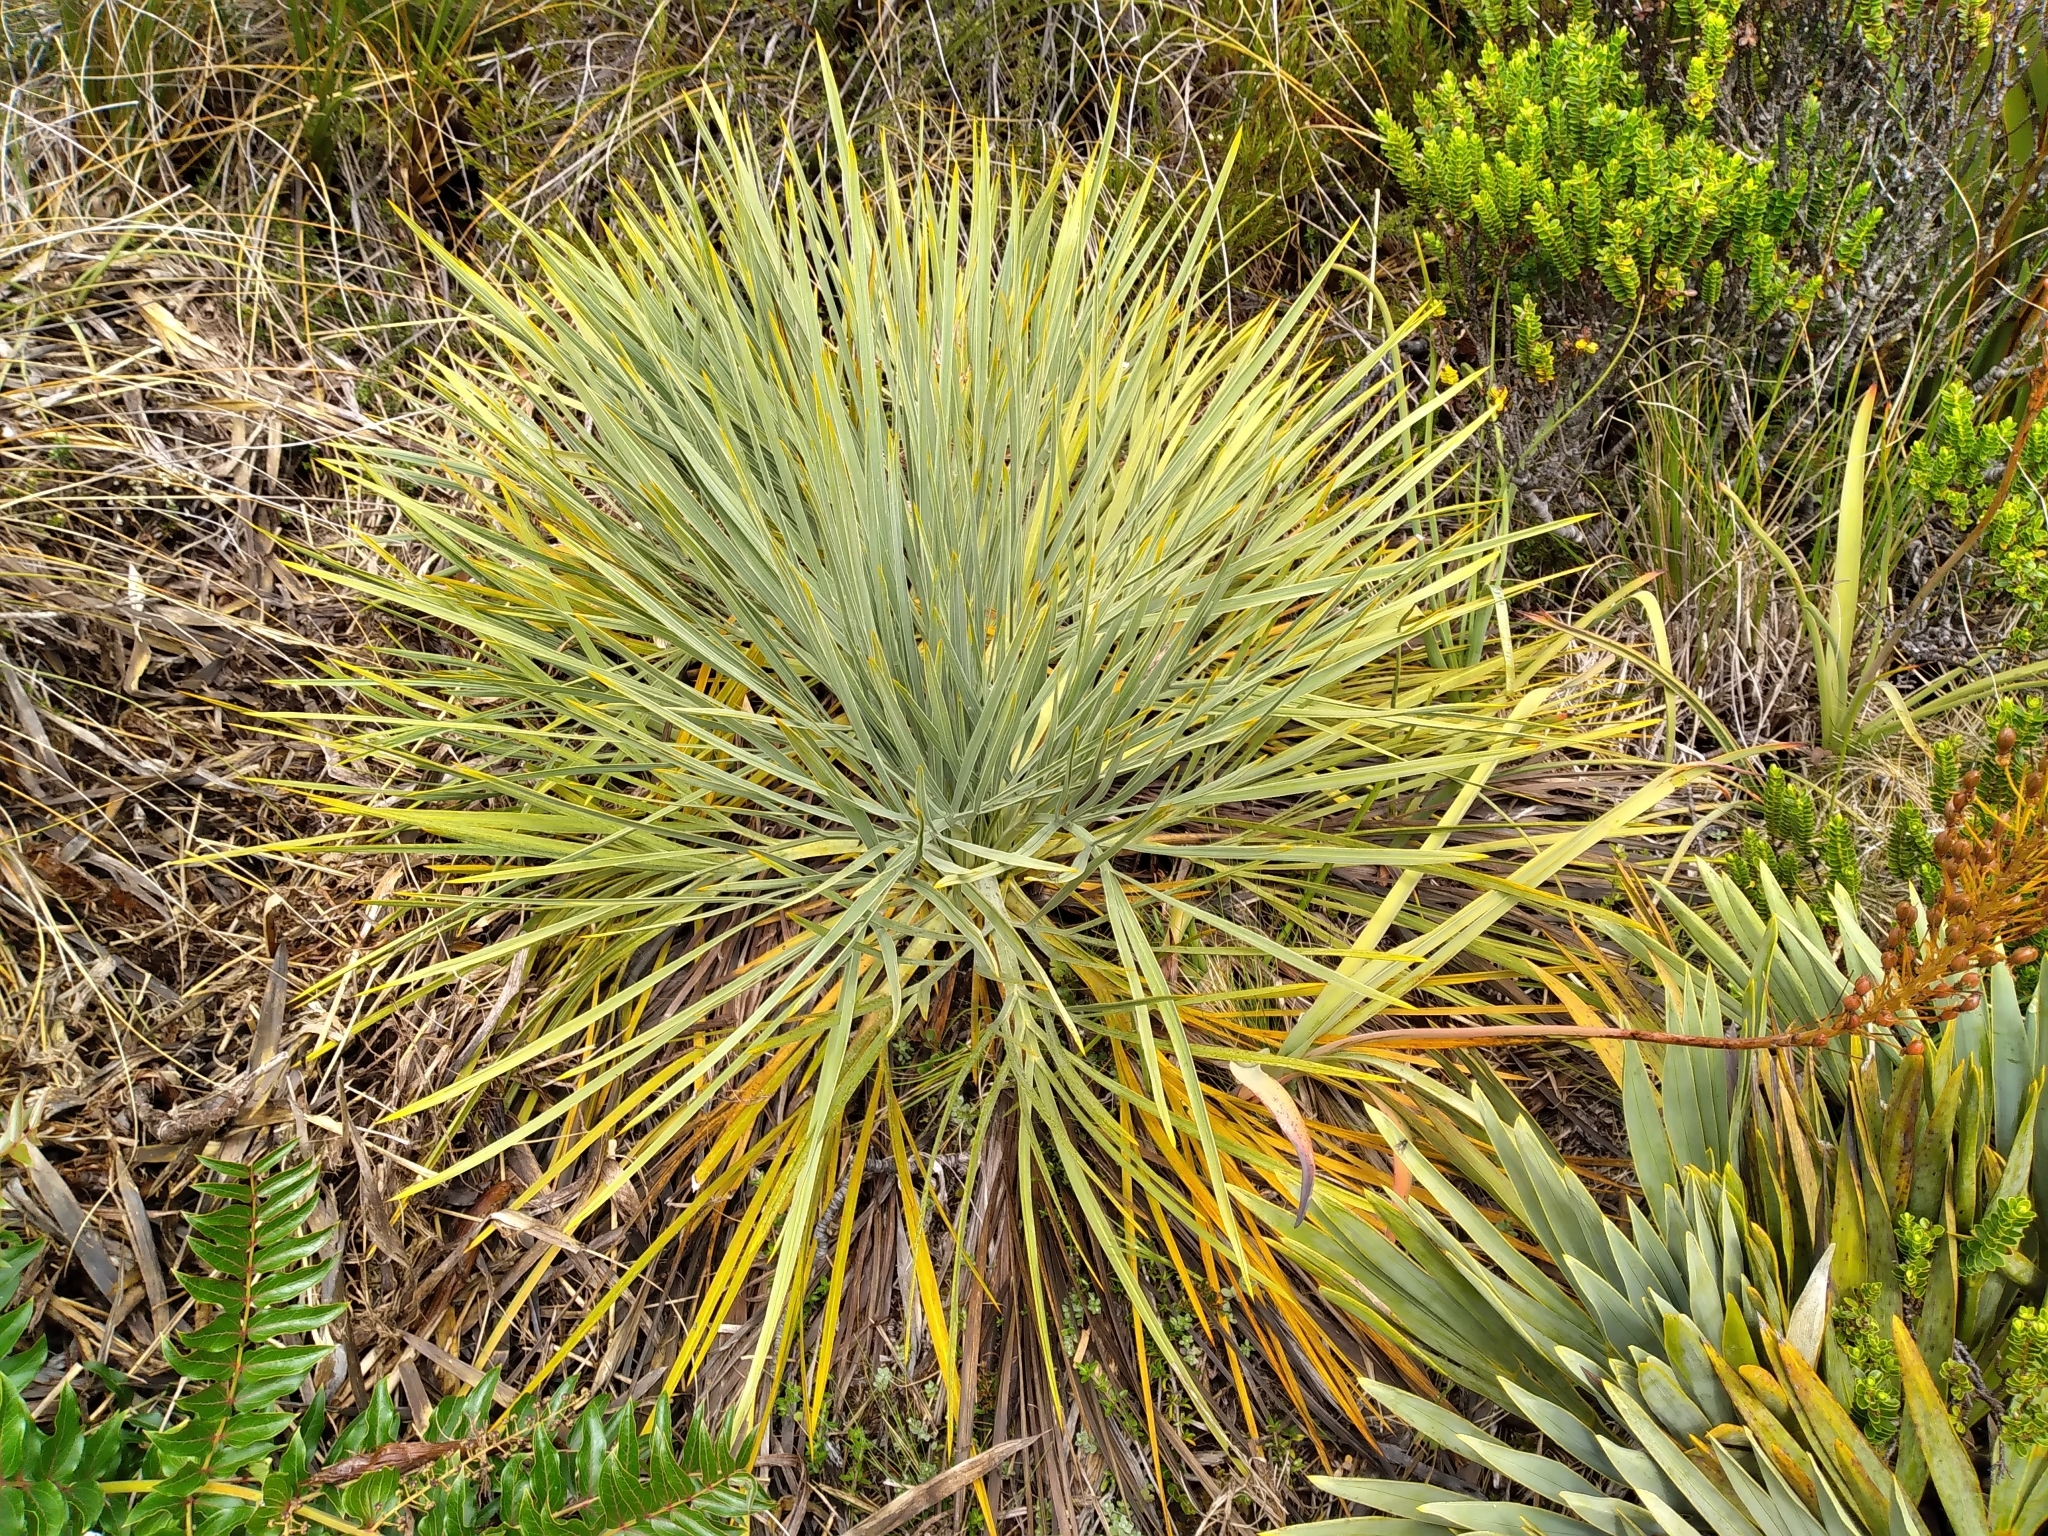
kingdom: Plantae
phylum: Tracheophyta
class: Magnoliopsida
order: Apiales
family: Apiaceae
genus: Aciphylla
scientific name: Aciphylla glaucescens
